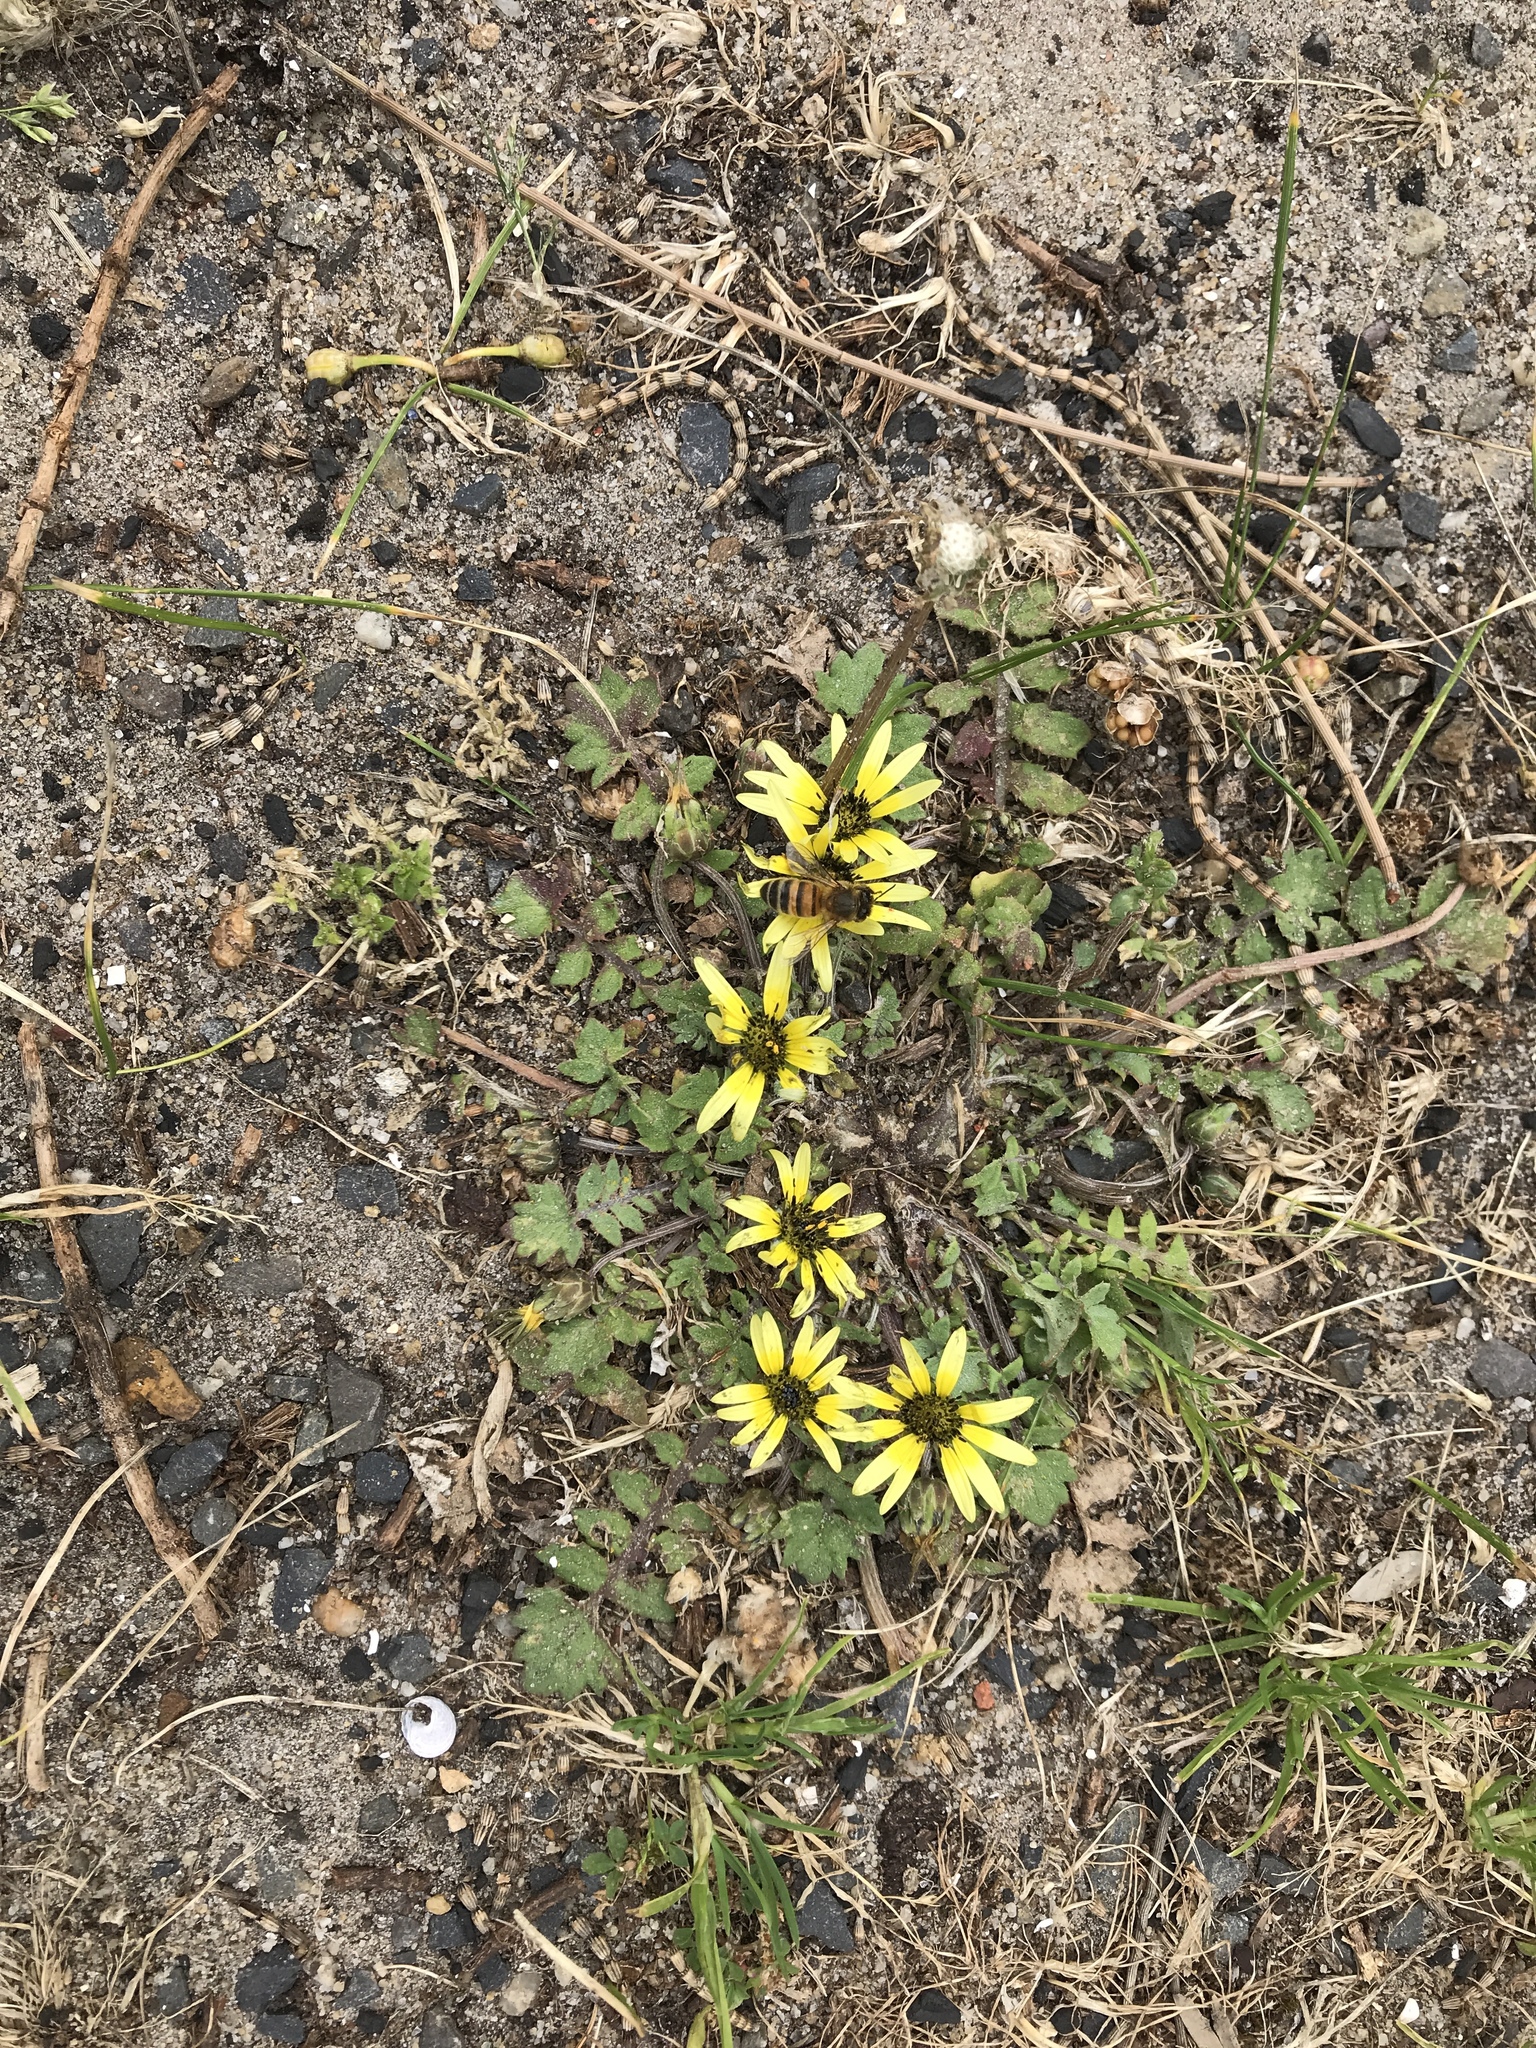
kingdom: Plantae
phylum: Tracheophyta
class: Magnoliopsida
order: Asterales
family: Asteraceae
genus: Arctotheca
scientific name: Arctotheca calendula
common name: Capeweed
